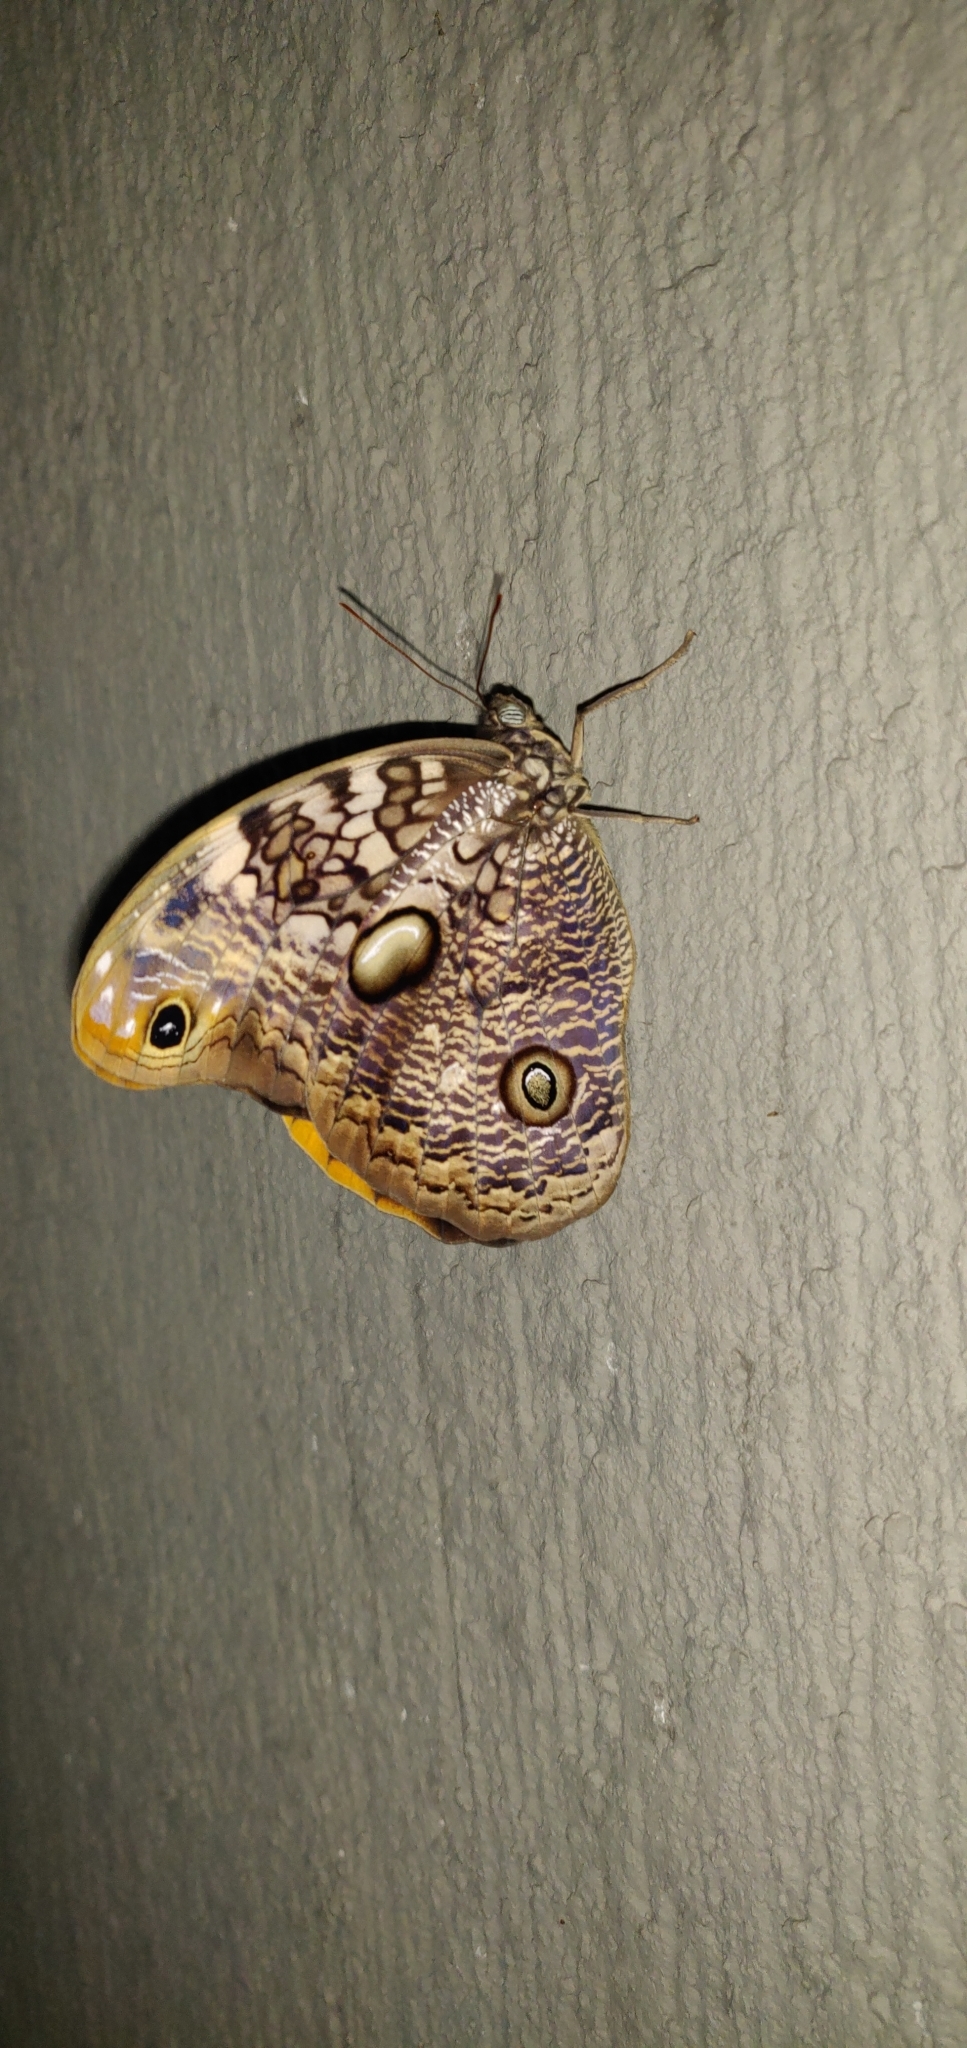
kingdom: Animalia
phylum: Arthropoda
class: Insecta
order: Lepidoptera
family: Nymphalidae
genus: Catoblepia
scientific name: Catoblepia amphirhoe
